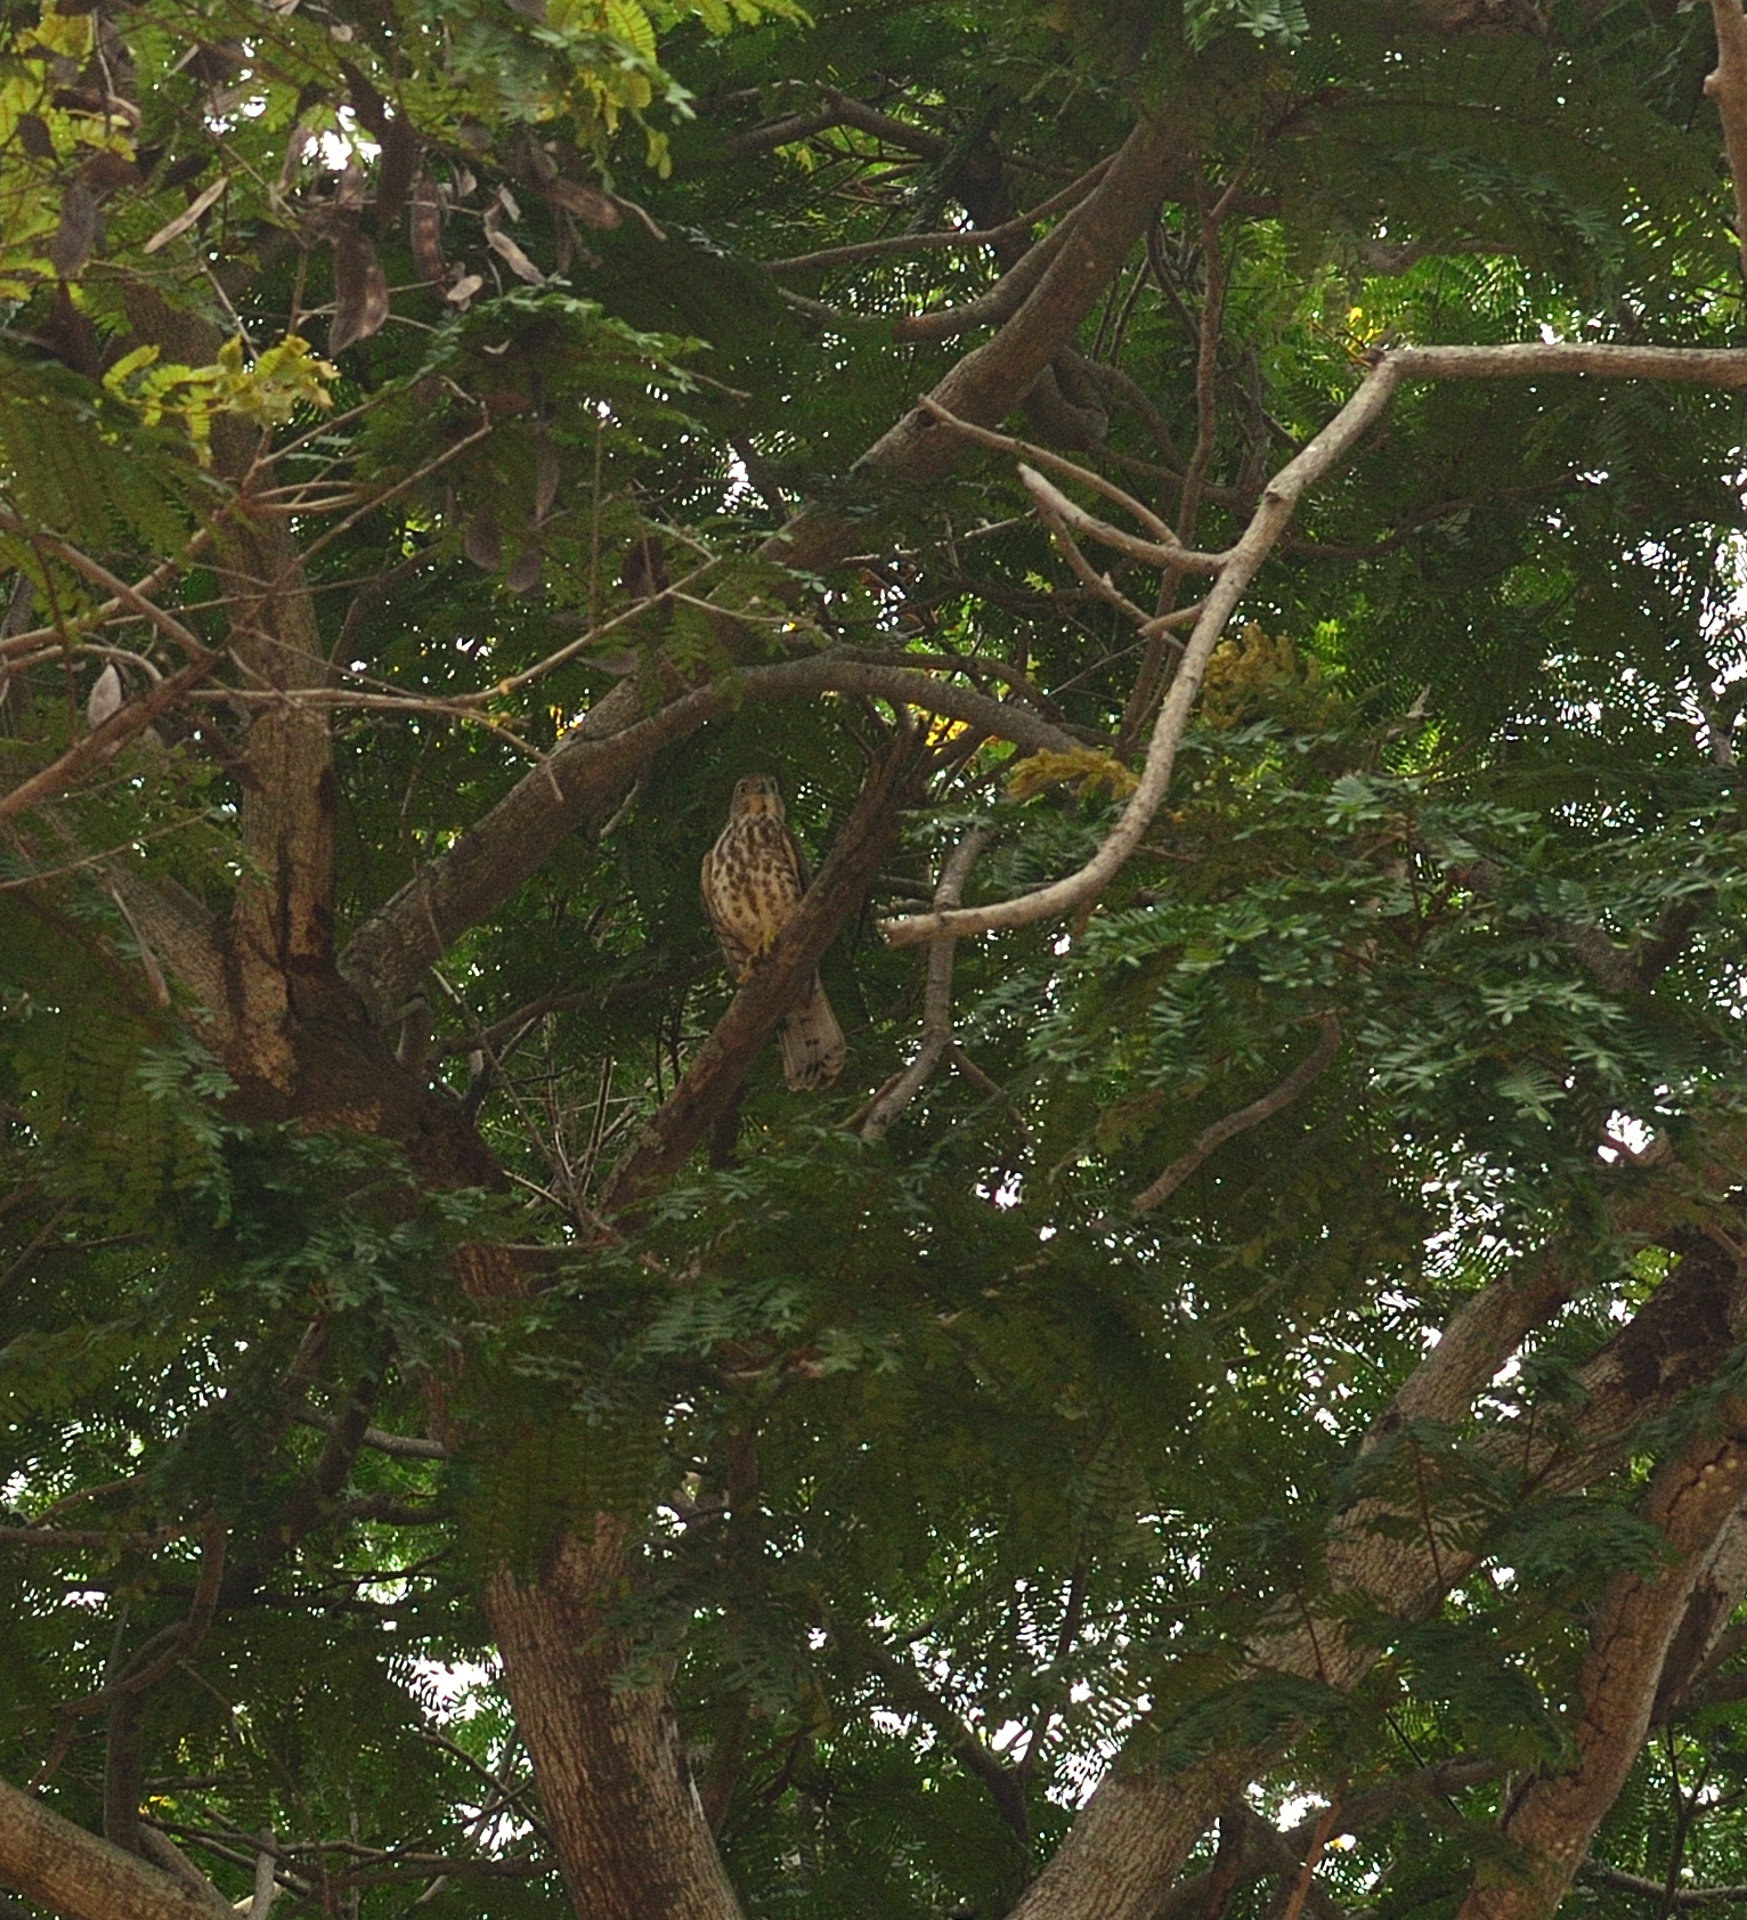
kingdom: Animalia
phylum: Chordata
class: Aves
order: Accipitriformes
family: Accipitridae
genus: Accipiter
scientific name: Accipiter badius
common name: Shikra
